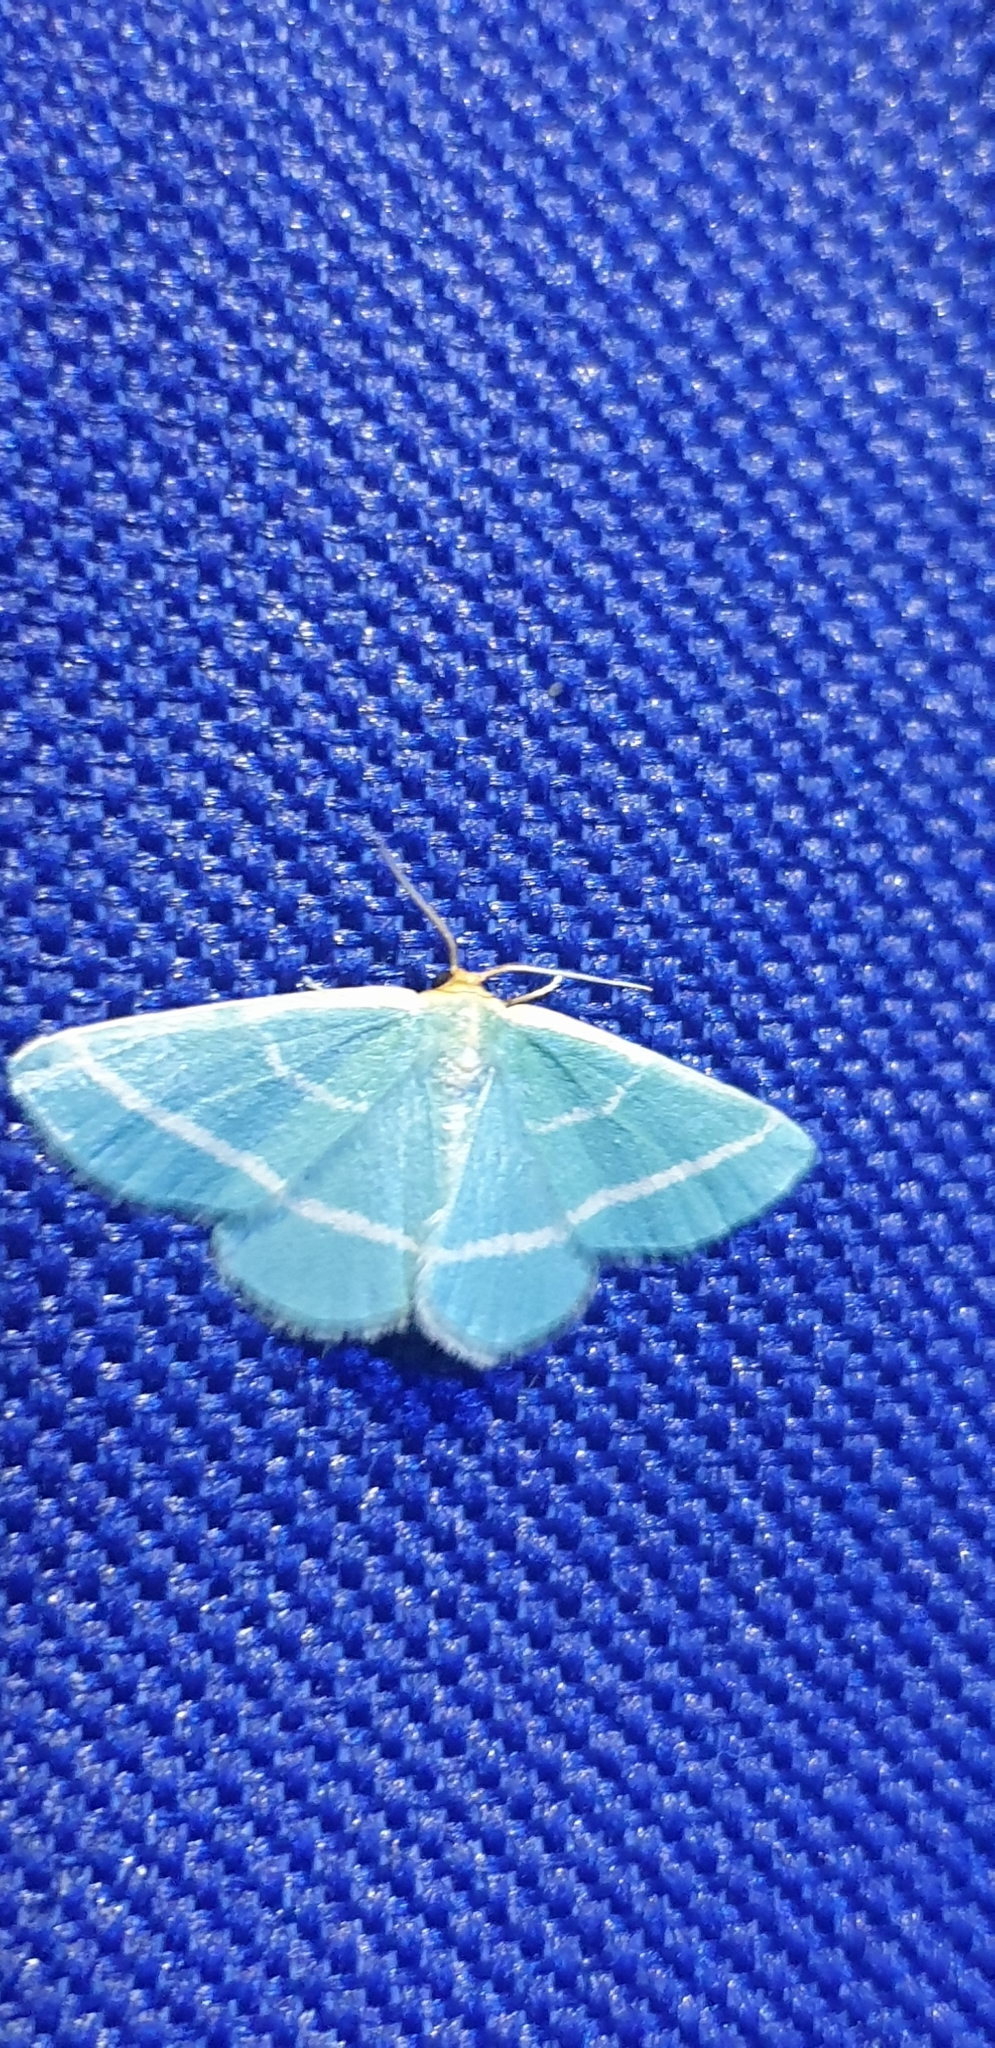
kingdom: Animalia
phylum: Arthropoda
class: Insecta
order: Lepidoptera
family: Geometridae
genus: Mixocera
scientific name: Mixocera latilineata
